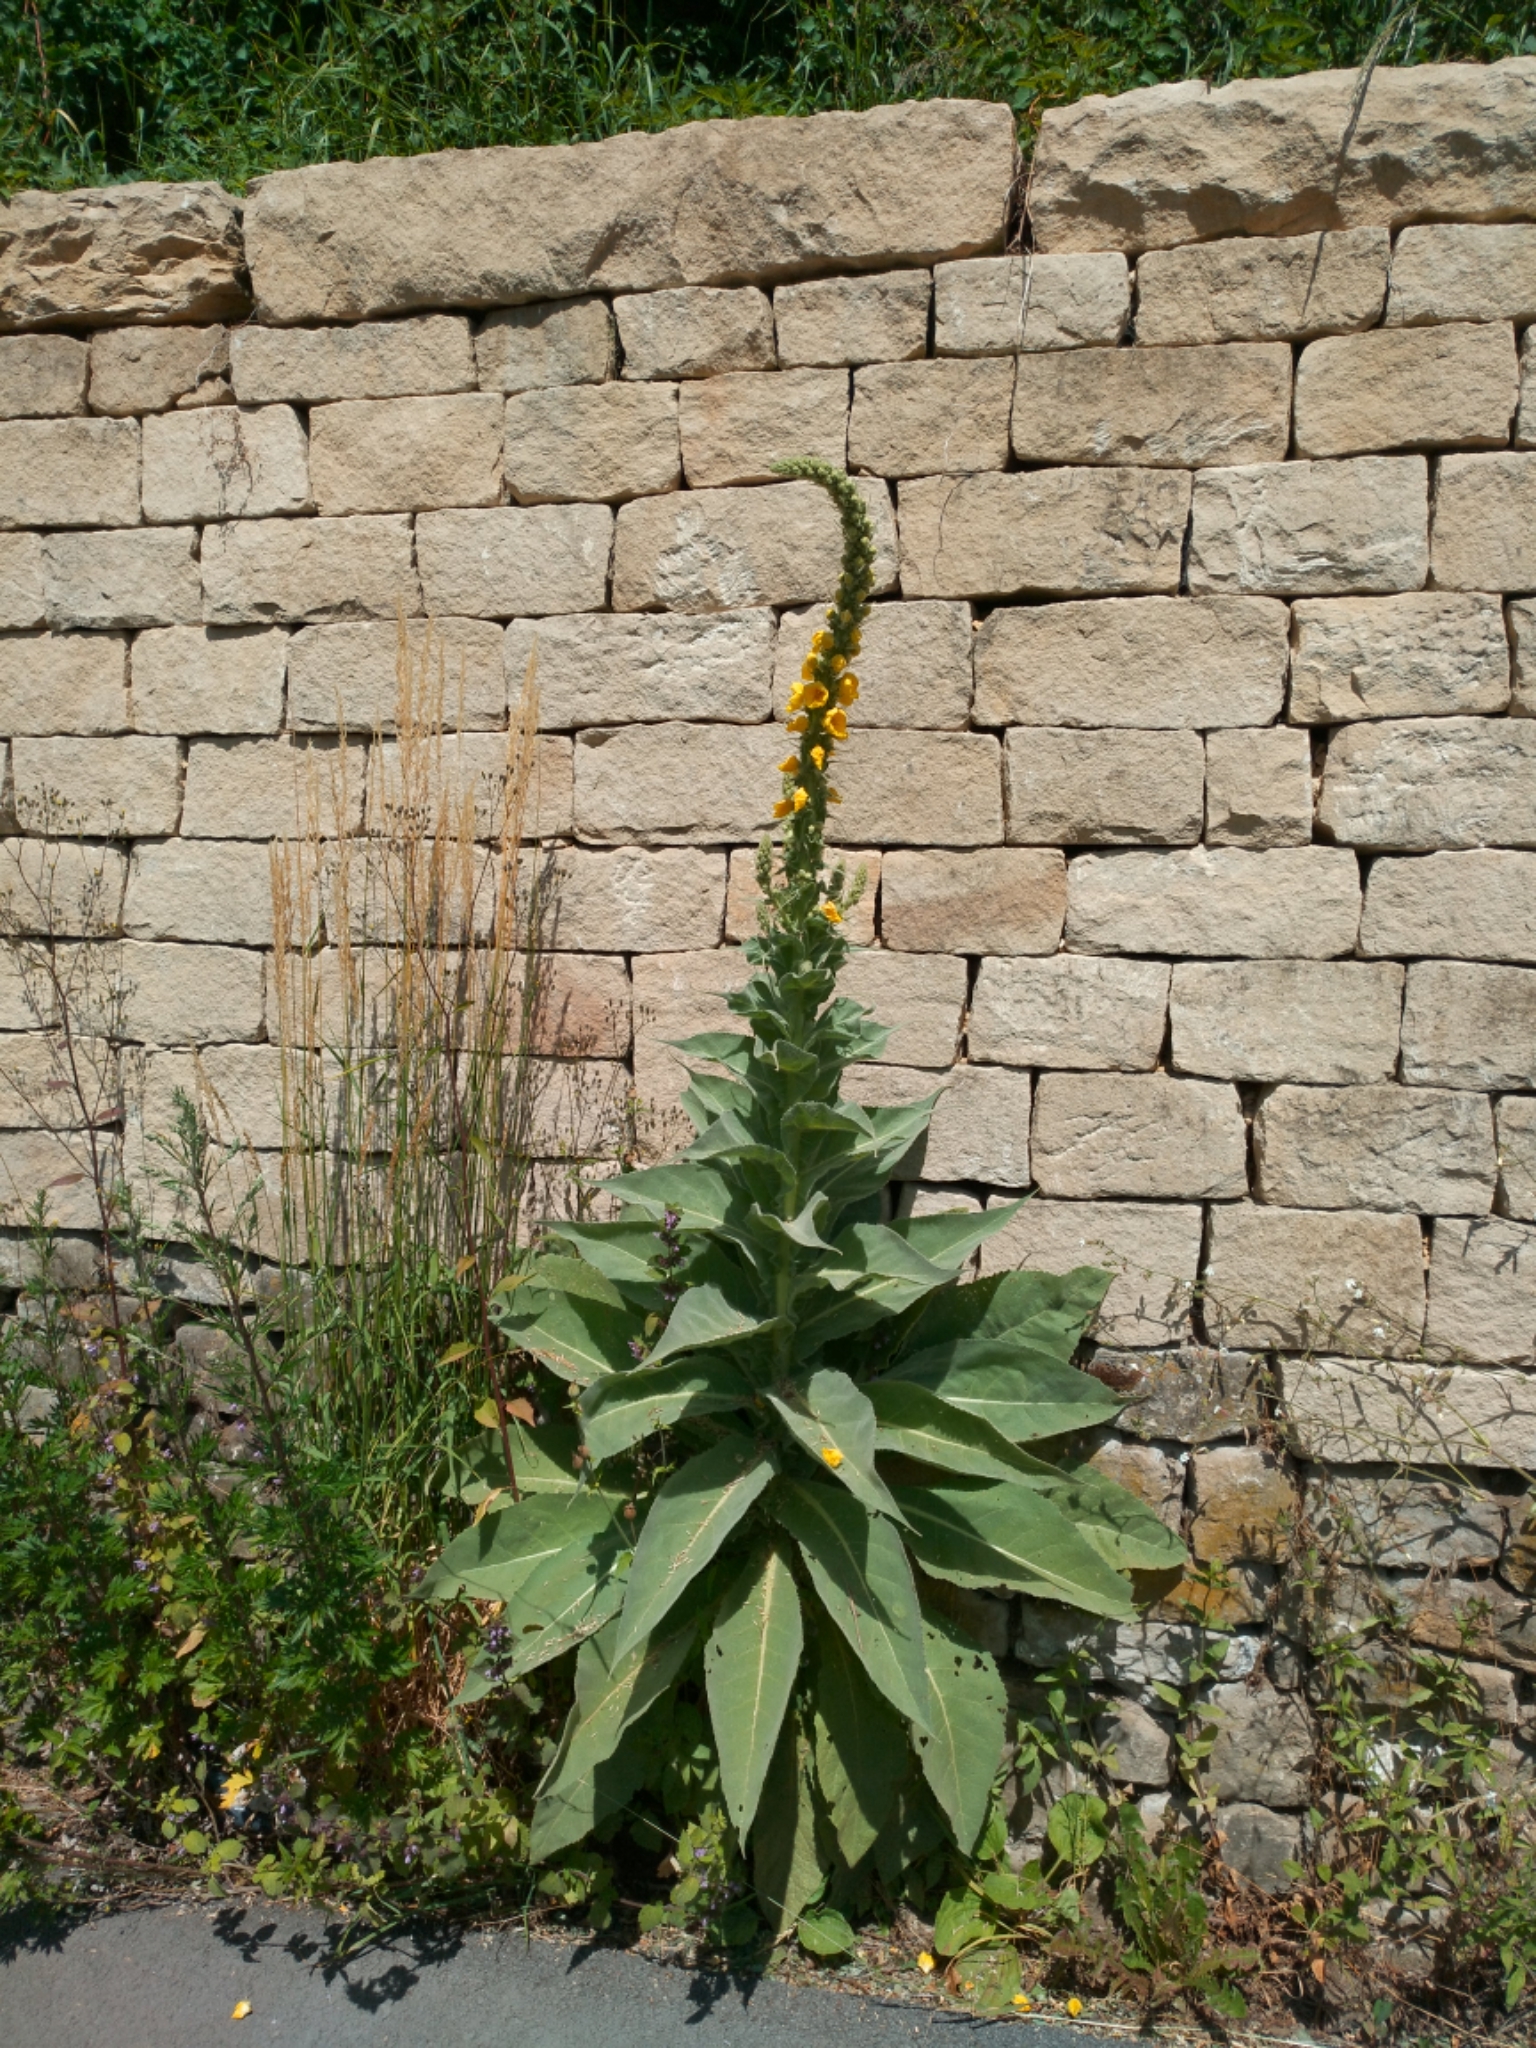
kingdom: Plantae
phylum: Tracheophyta
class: Magnoliopsida
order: Lamiales
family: Scrophulariaceae
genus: Verbascum
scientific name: Verbascum thapsus
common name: Common mullein
